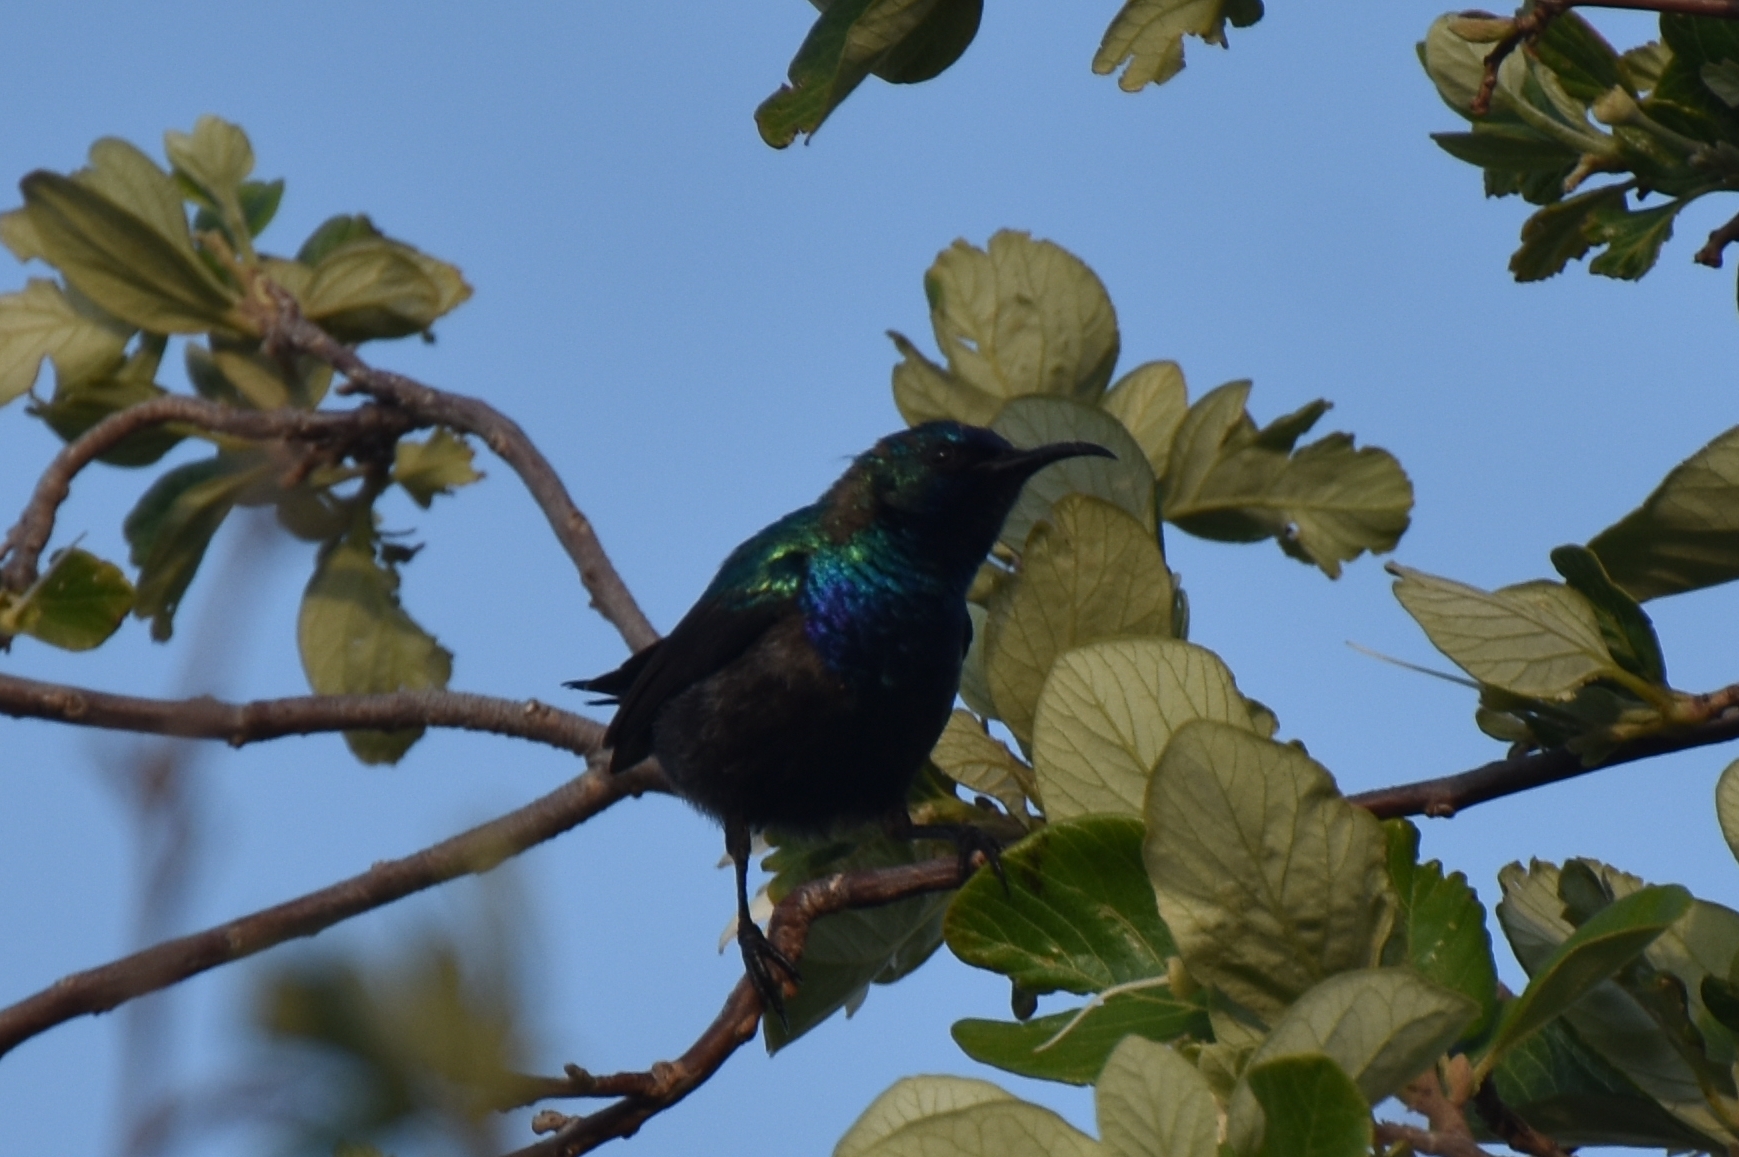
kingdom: Animalia
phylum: Chordata
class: Aves
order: Passeriformes
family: Nectariniidae
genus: Cinnyris
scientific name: Cinnyris osea
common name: Palestine sunbird
